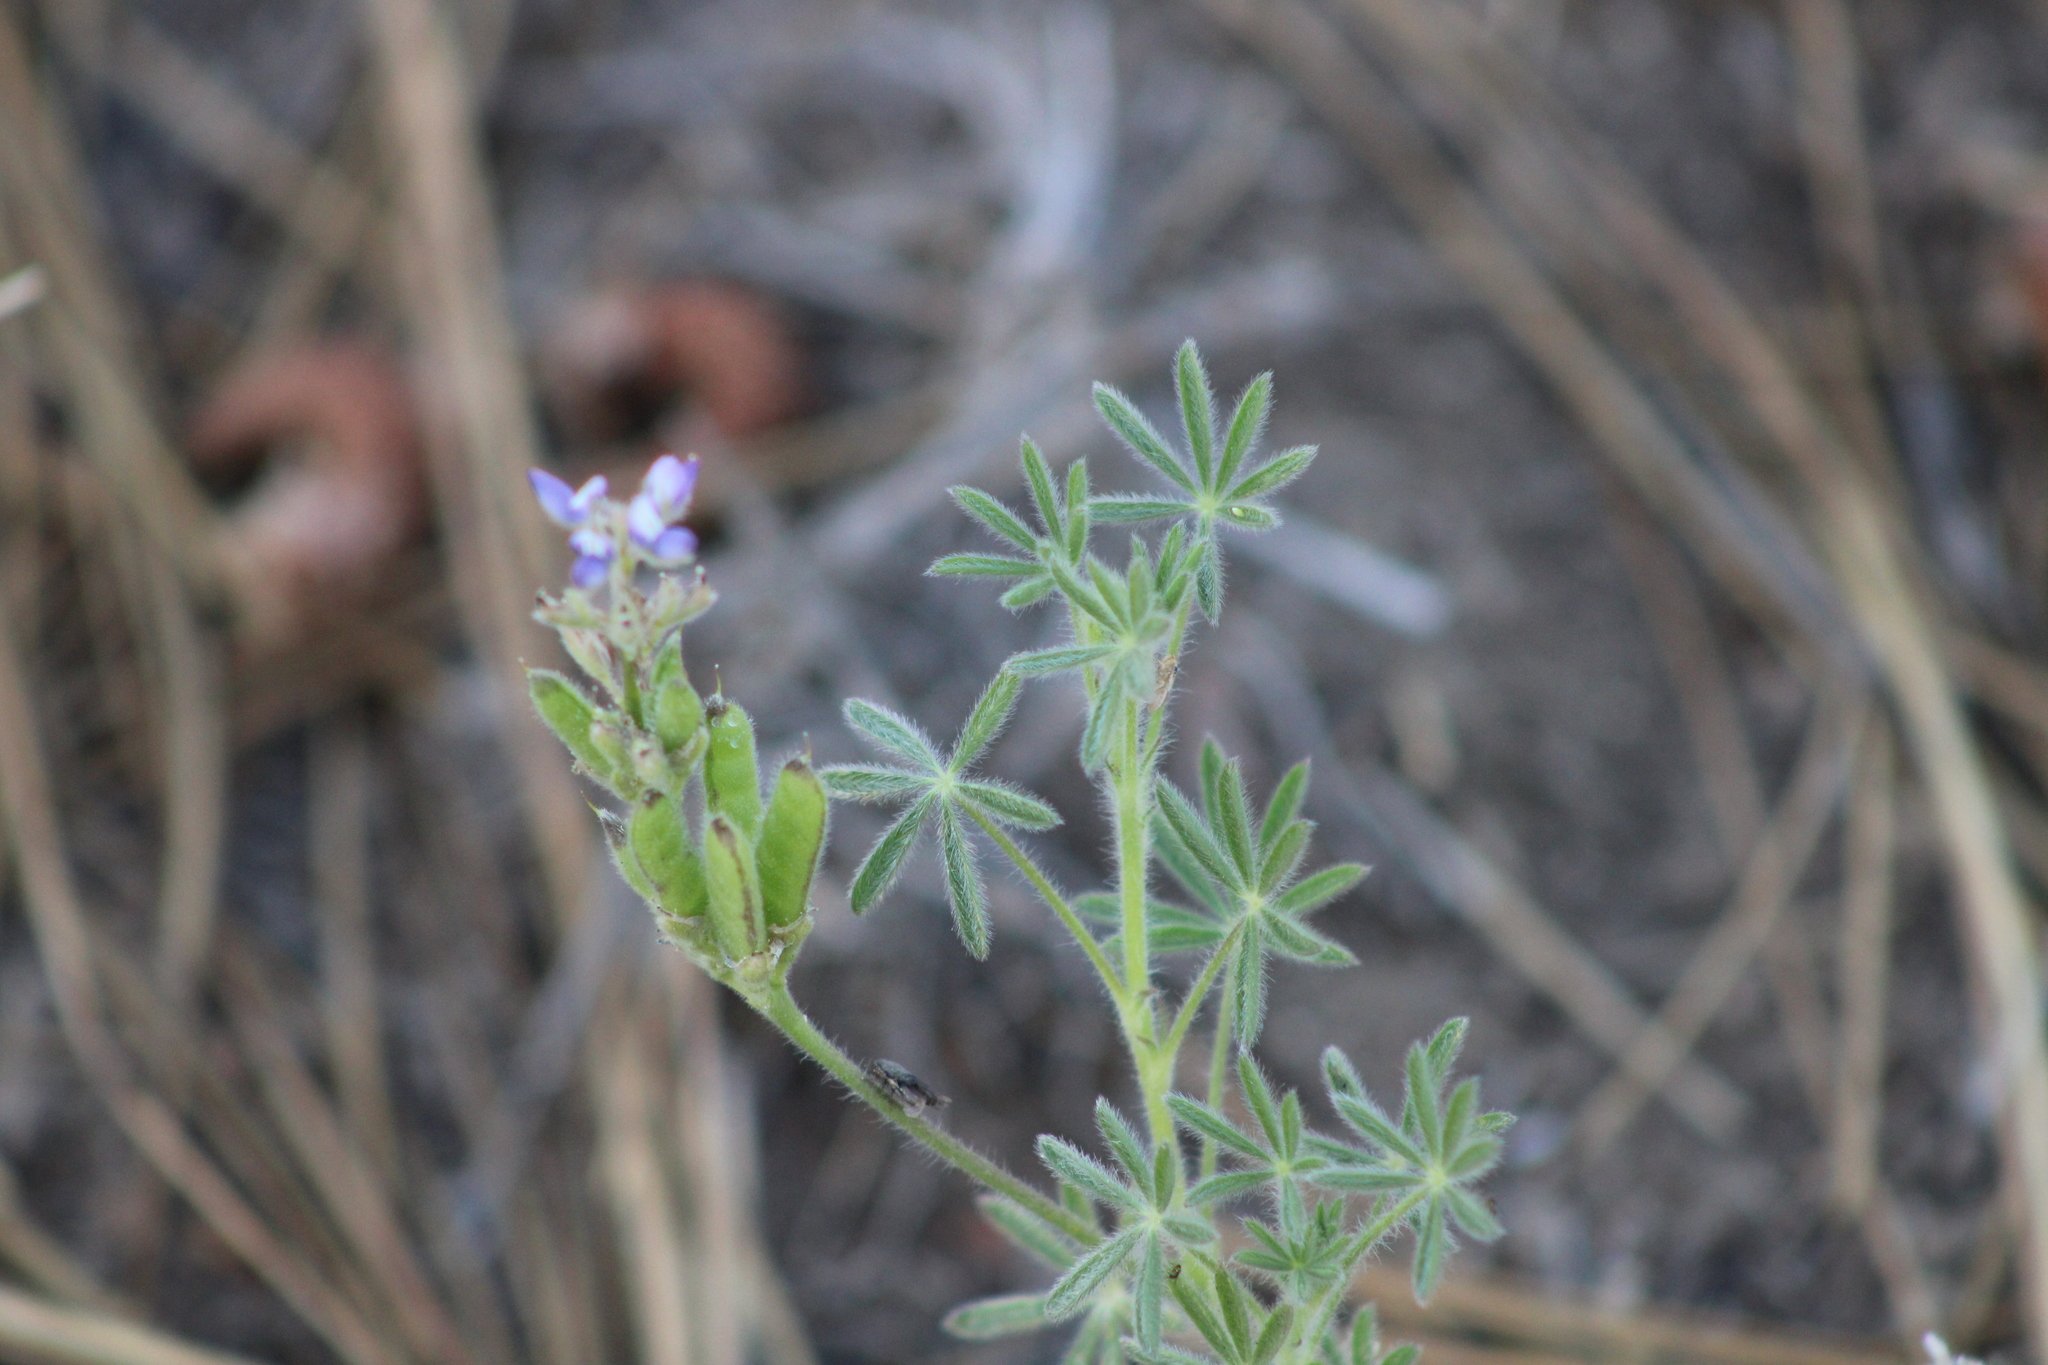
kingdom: Plantae
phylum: Tracheophyta
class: Magnoliopsida
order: Fabales
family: Fabaceae
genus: Lupinus
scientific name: Lupinus bicolor
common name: Miniature lupine
